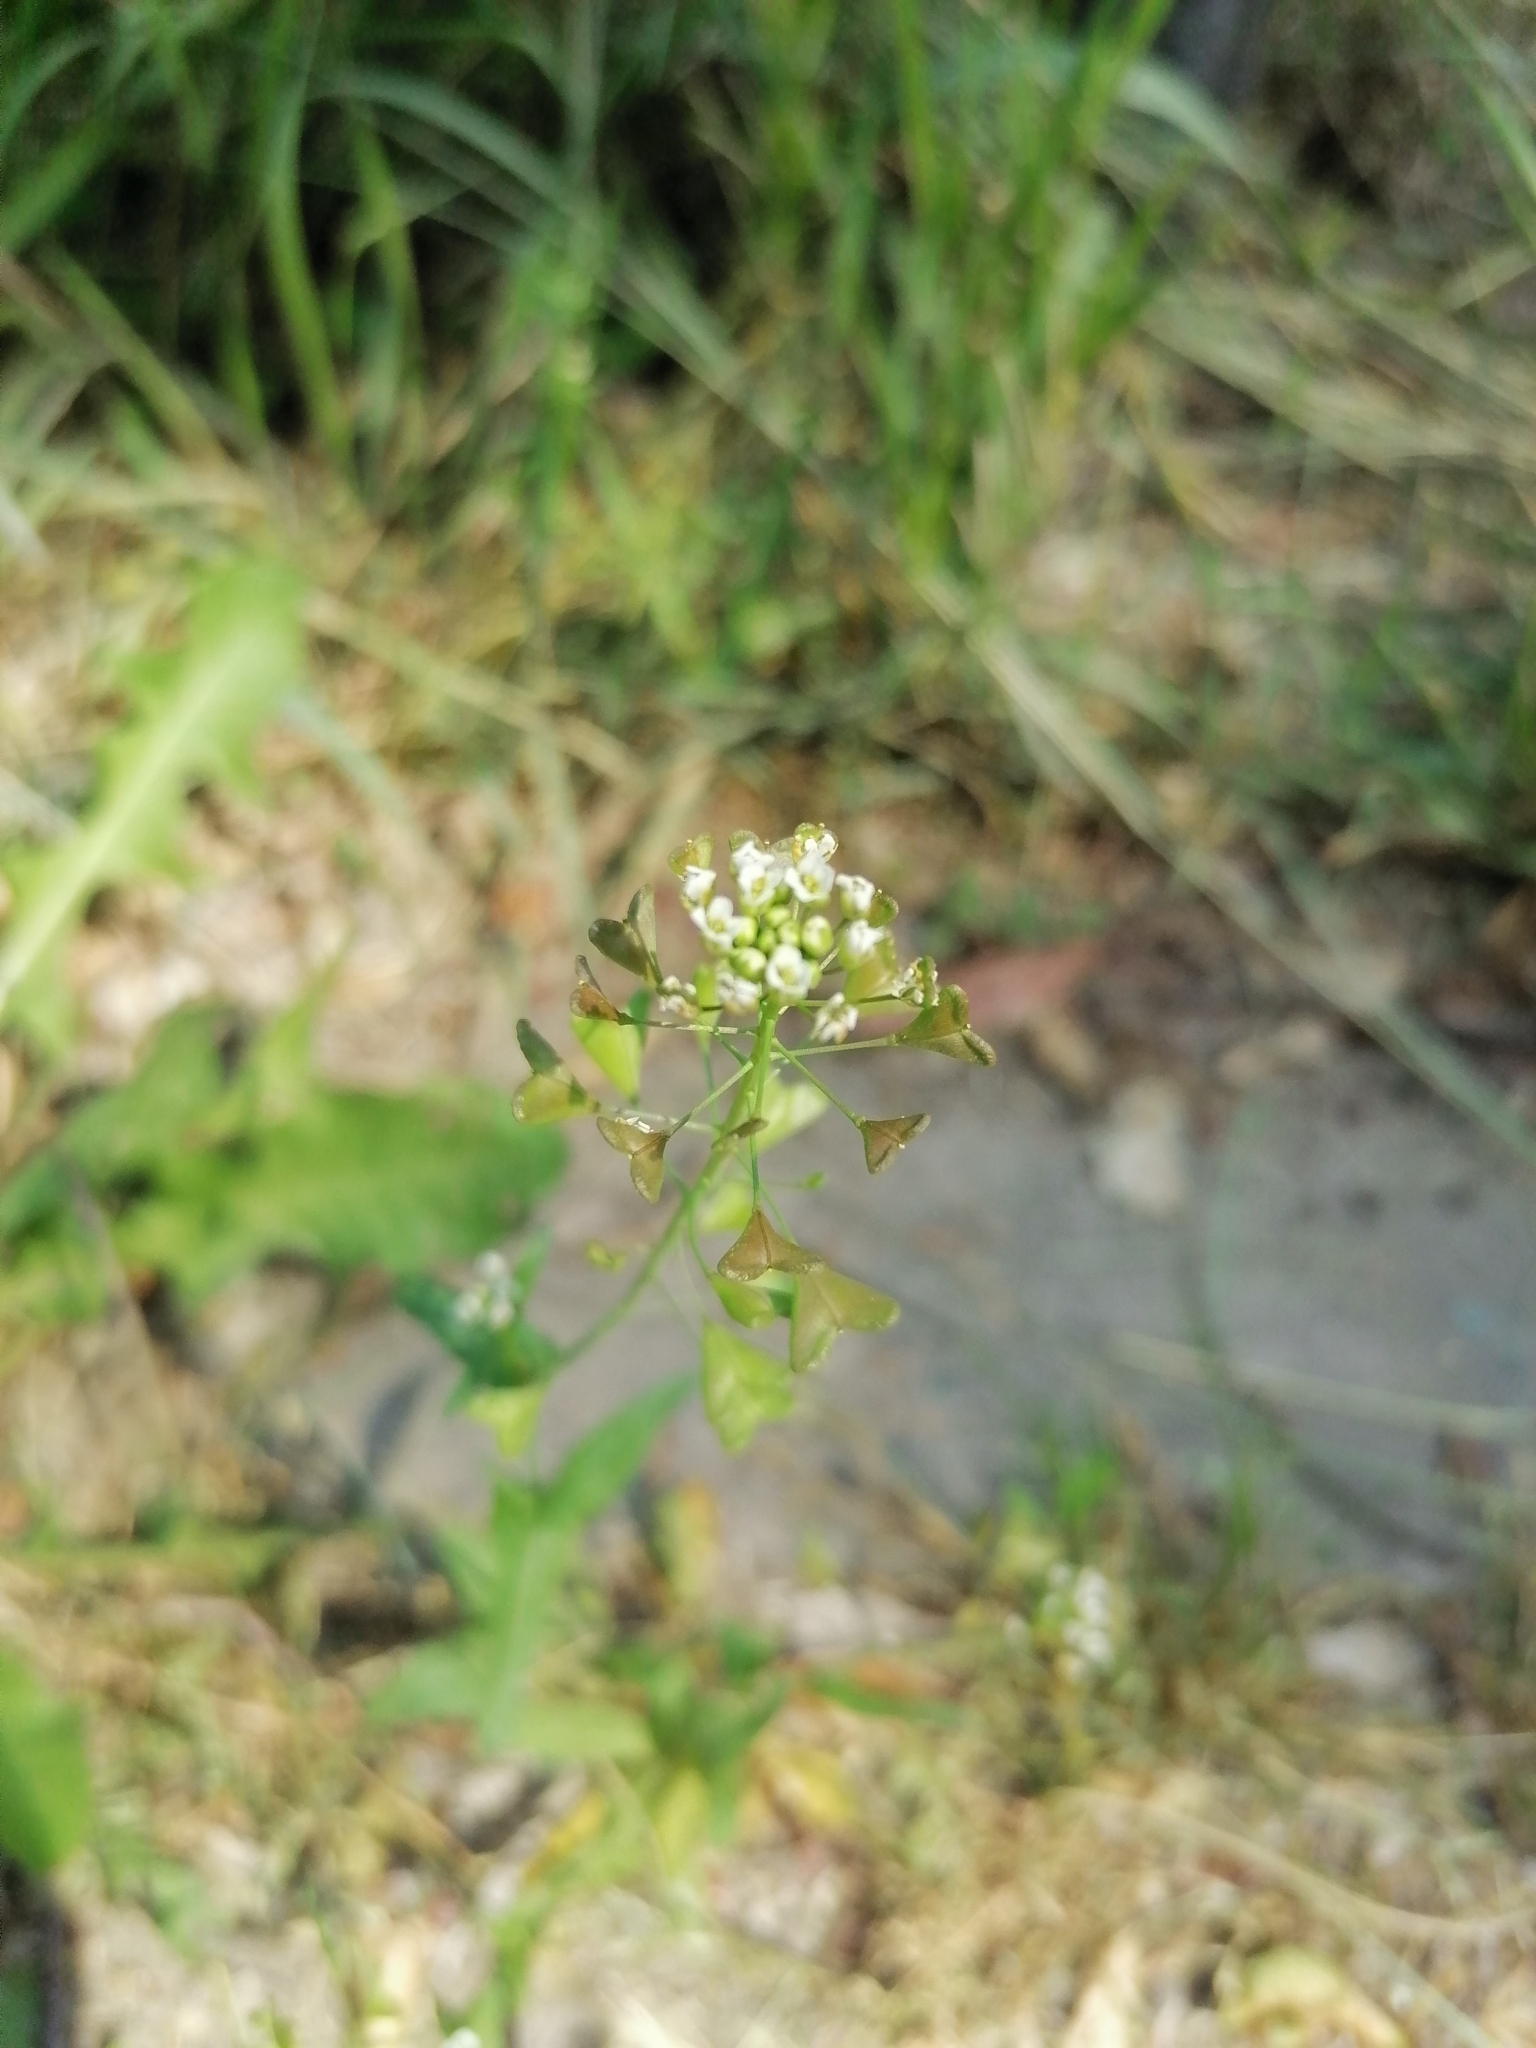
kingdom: Plantae
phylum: Tracheophyta
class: Magnoliopsida
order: Brassicales
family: Brassicaceae
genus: Capsella
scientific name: Capsella bursa-pastoris
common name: Shepherd's purse
